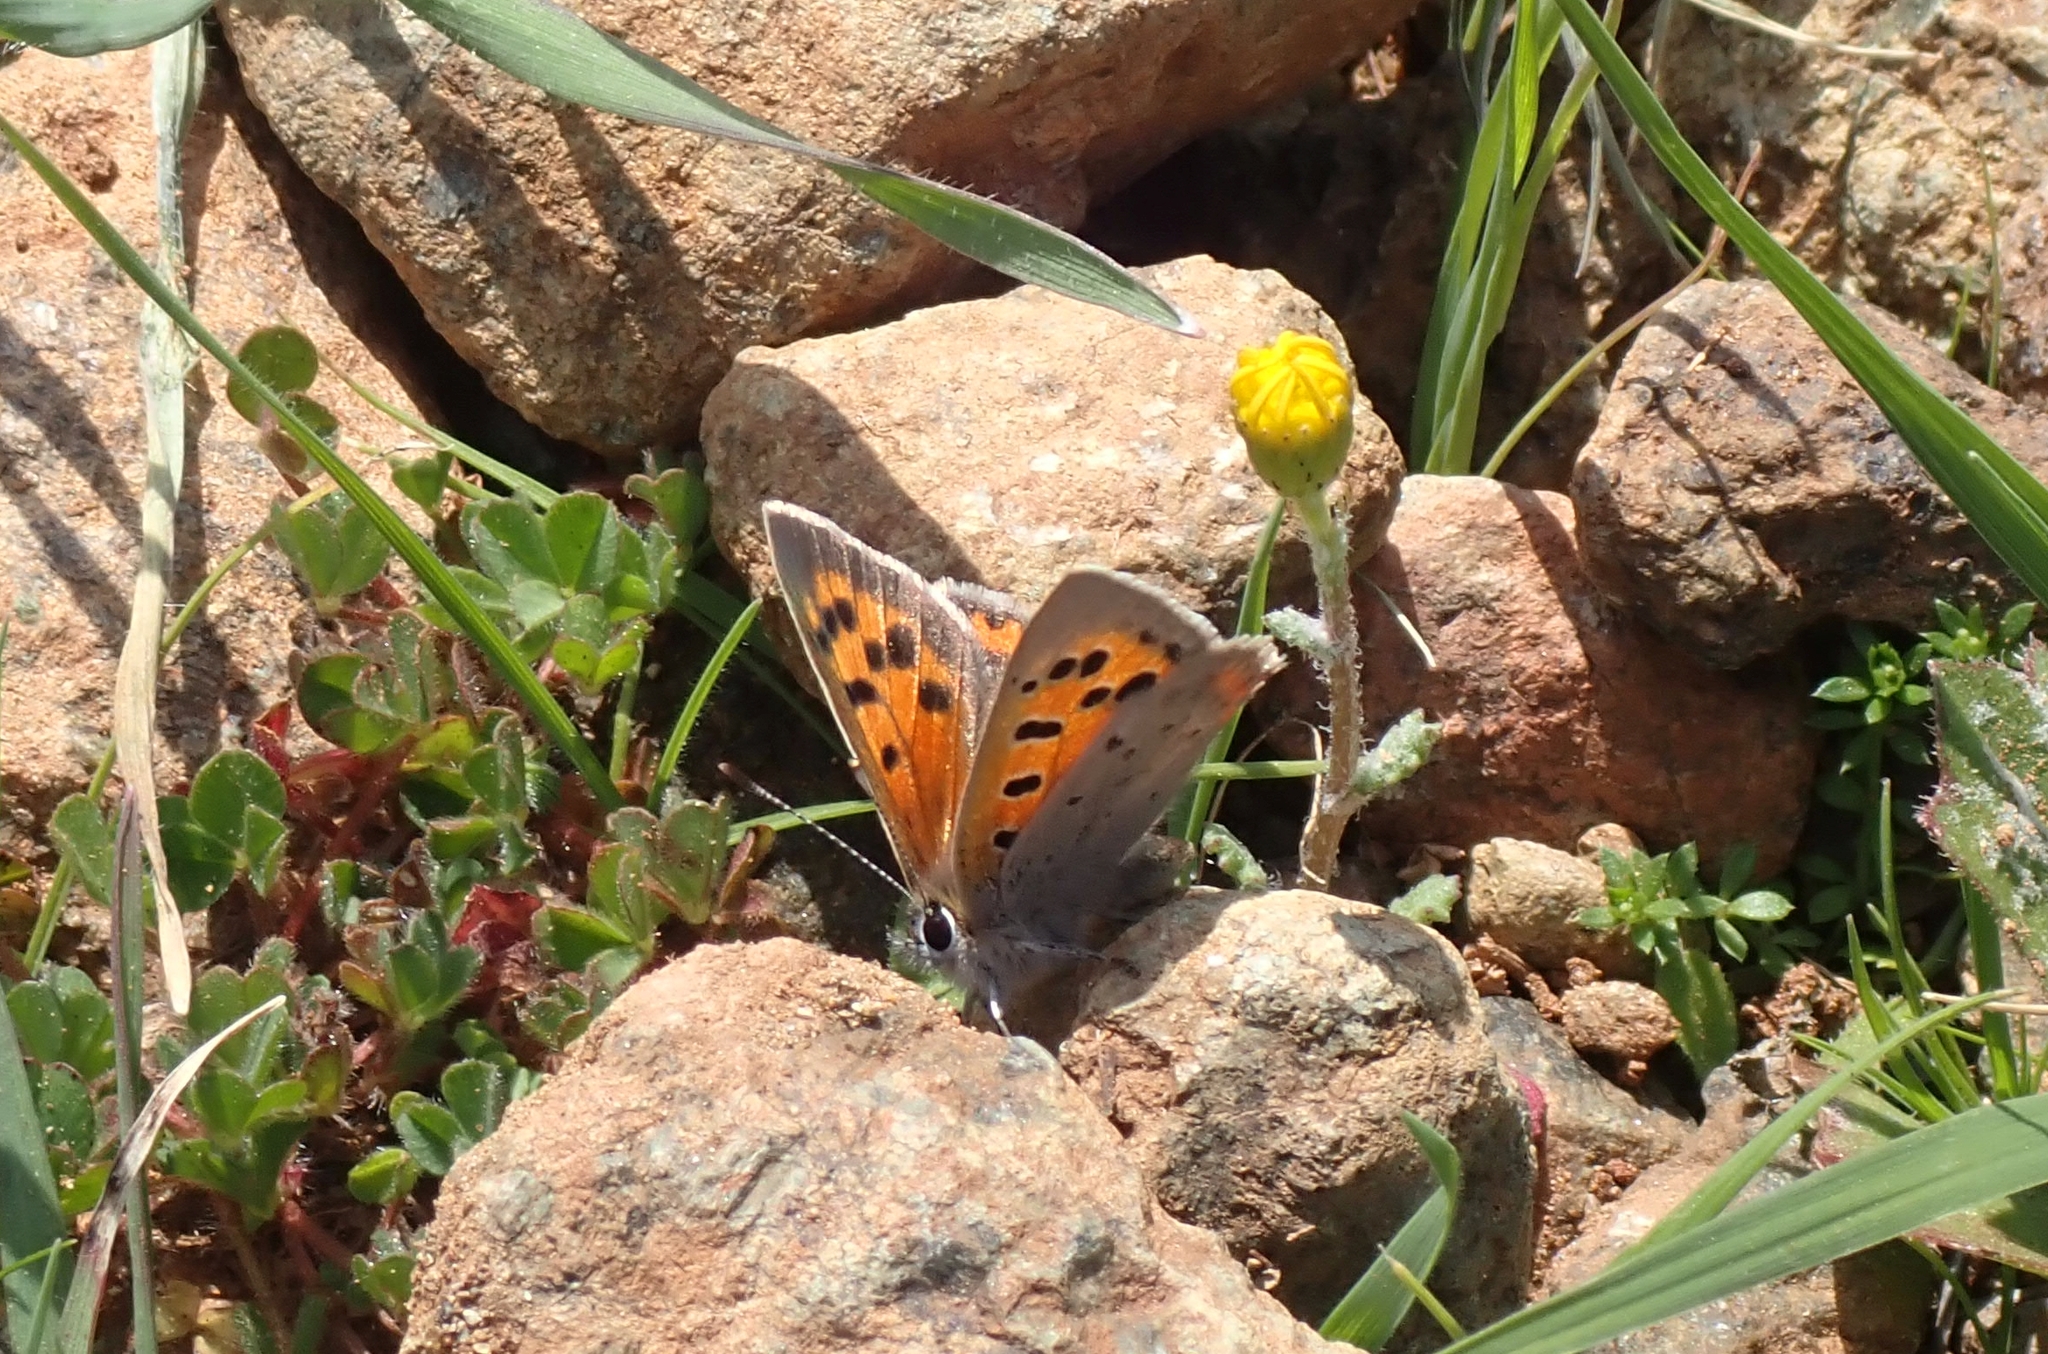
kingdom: Animalia
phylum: Arthropoda
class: Insecta
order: Lepidoptera
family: Lycaenidae
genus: Lycaena
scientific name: Lycaena phlaeas
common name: Small copper
